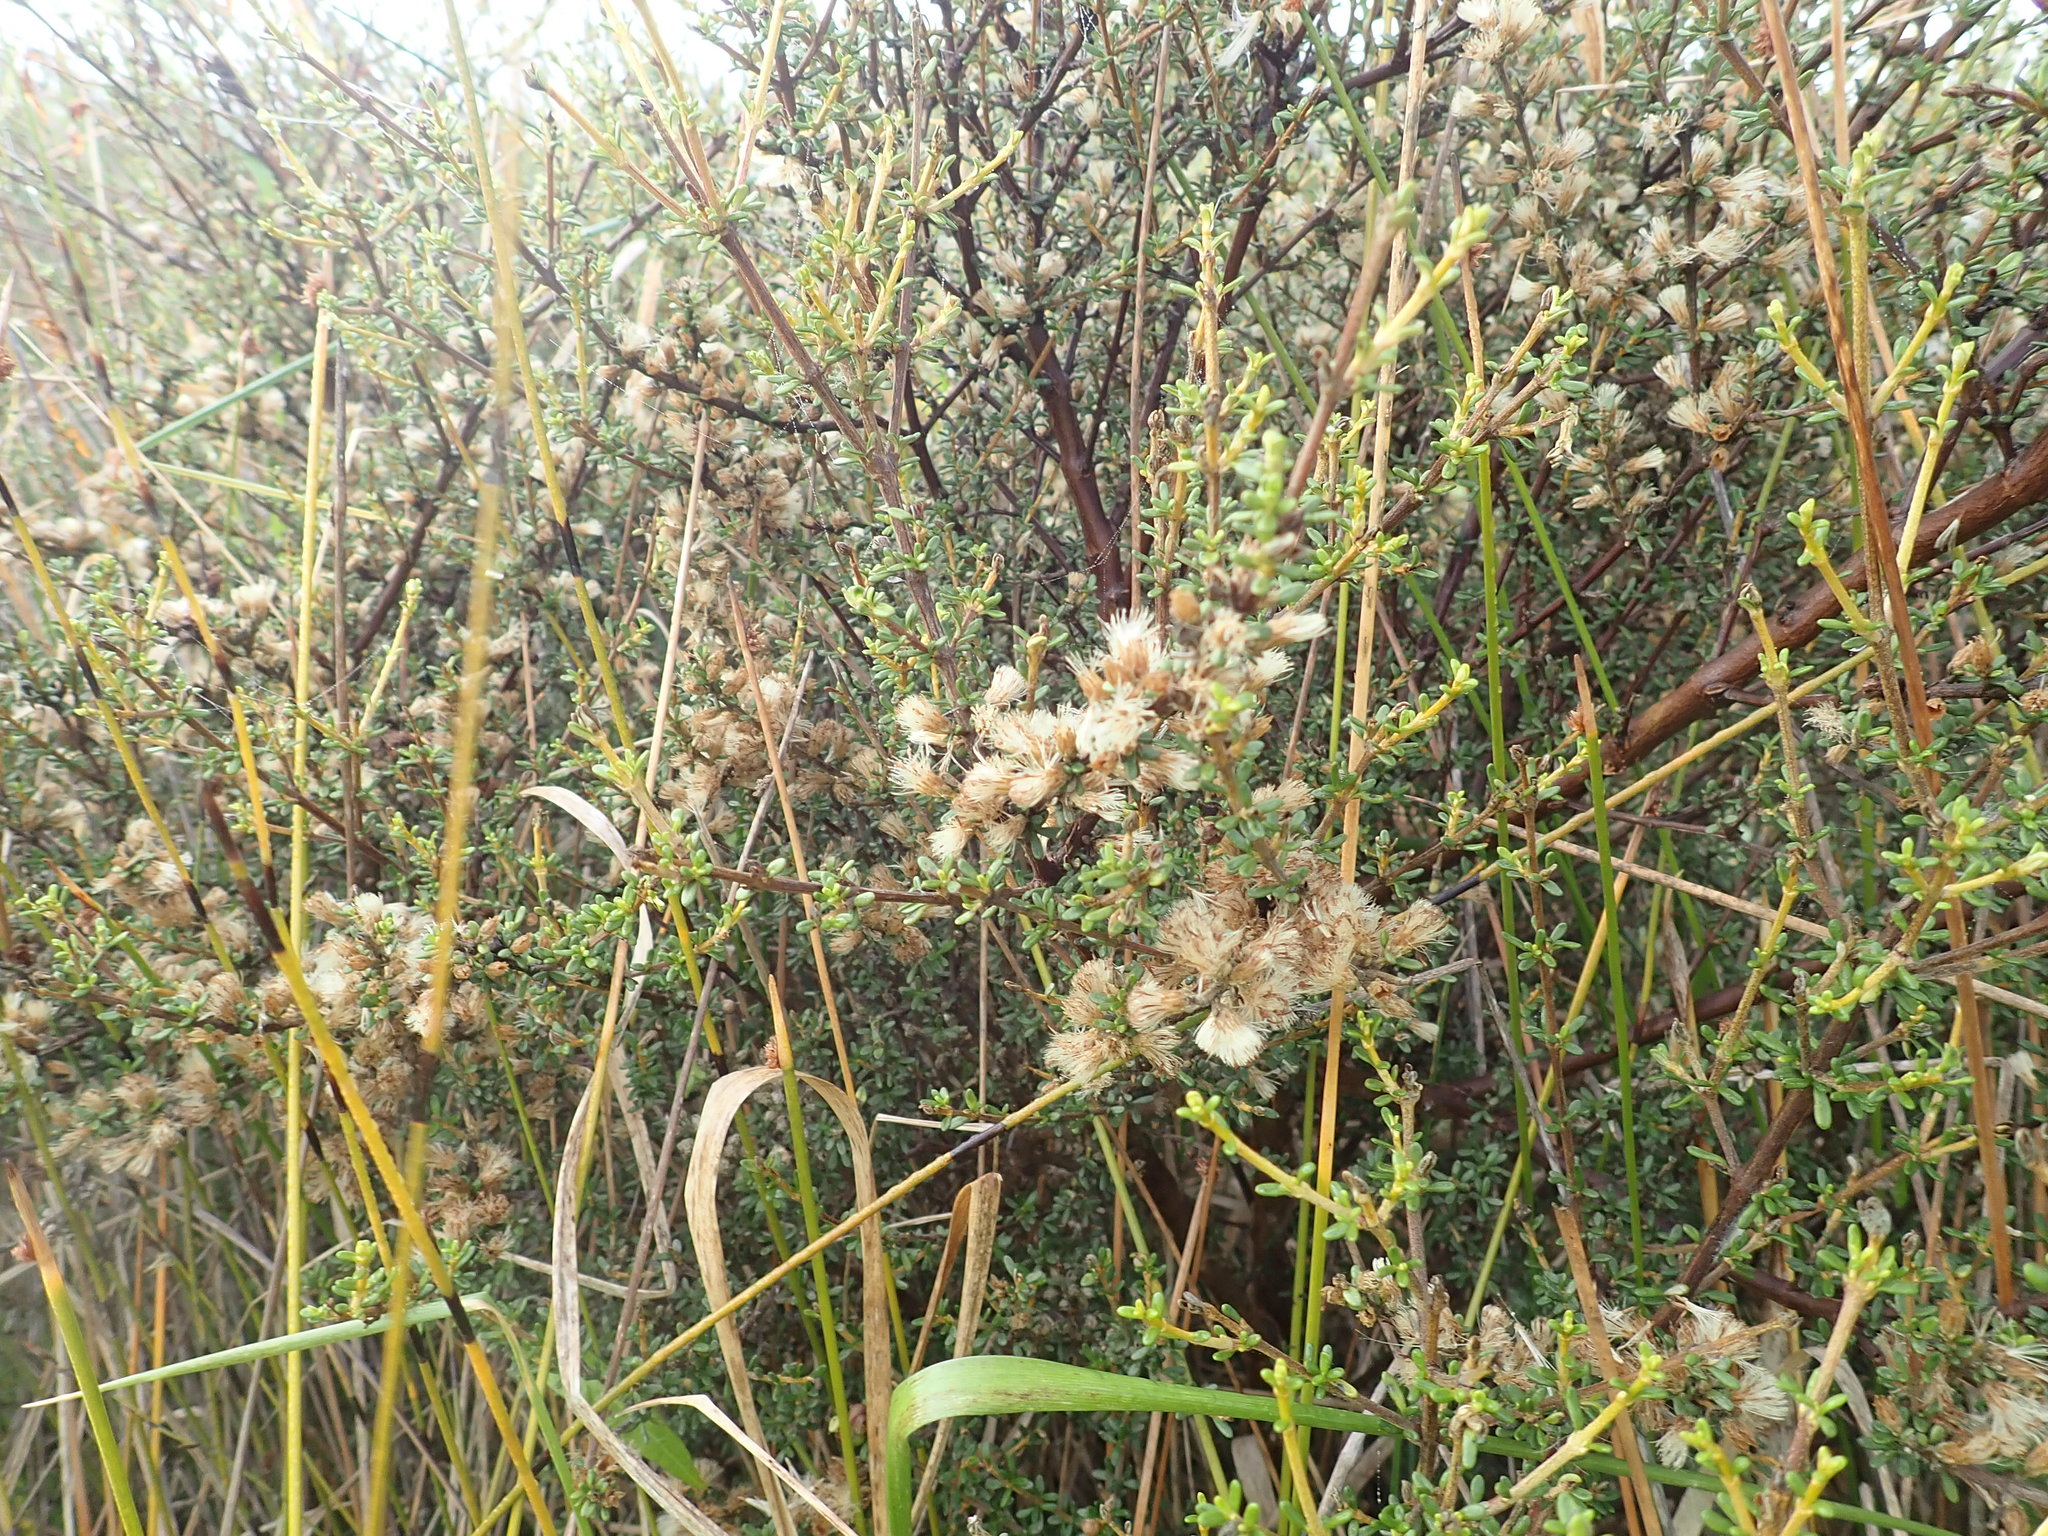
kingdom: Plantae
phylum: Tracheophyta
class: Magnoliopsida
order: Asterales
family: Asteraceae
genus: Olearia
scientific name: Olearia solandri
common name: Coastal daisybush
